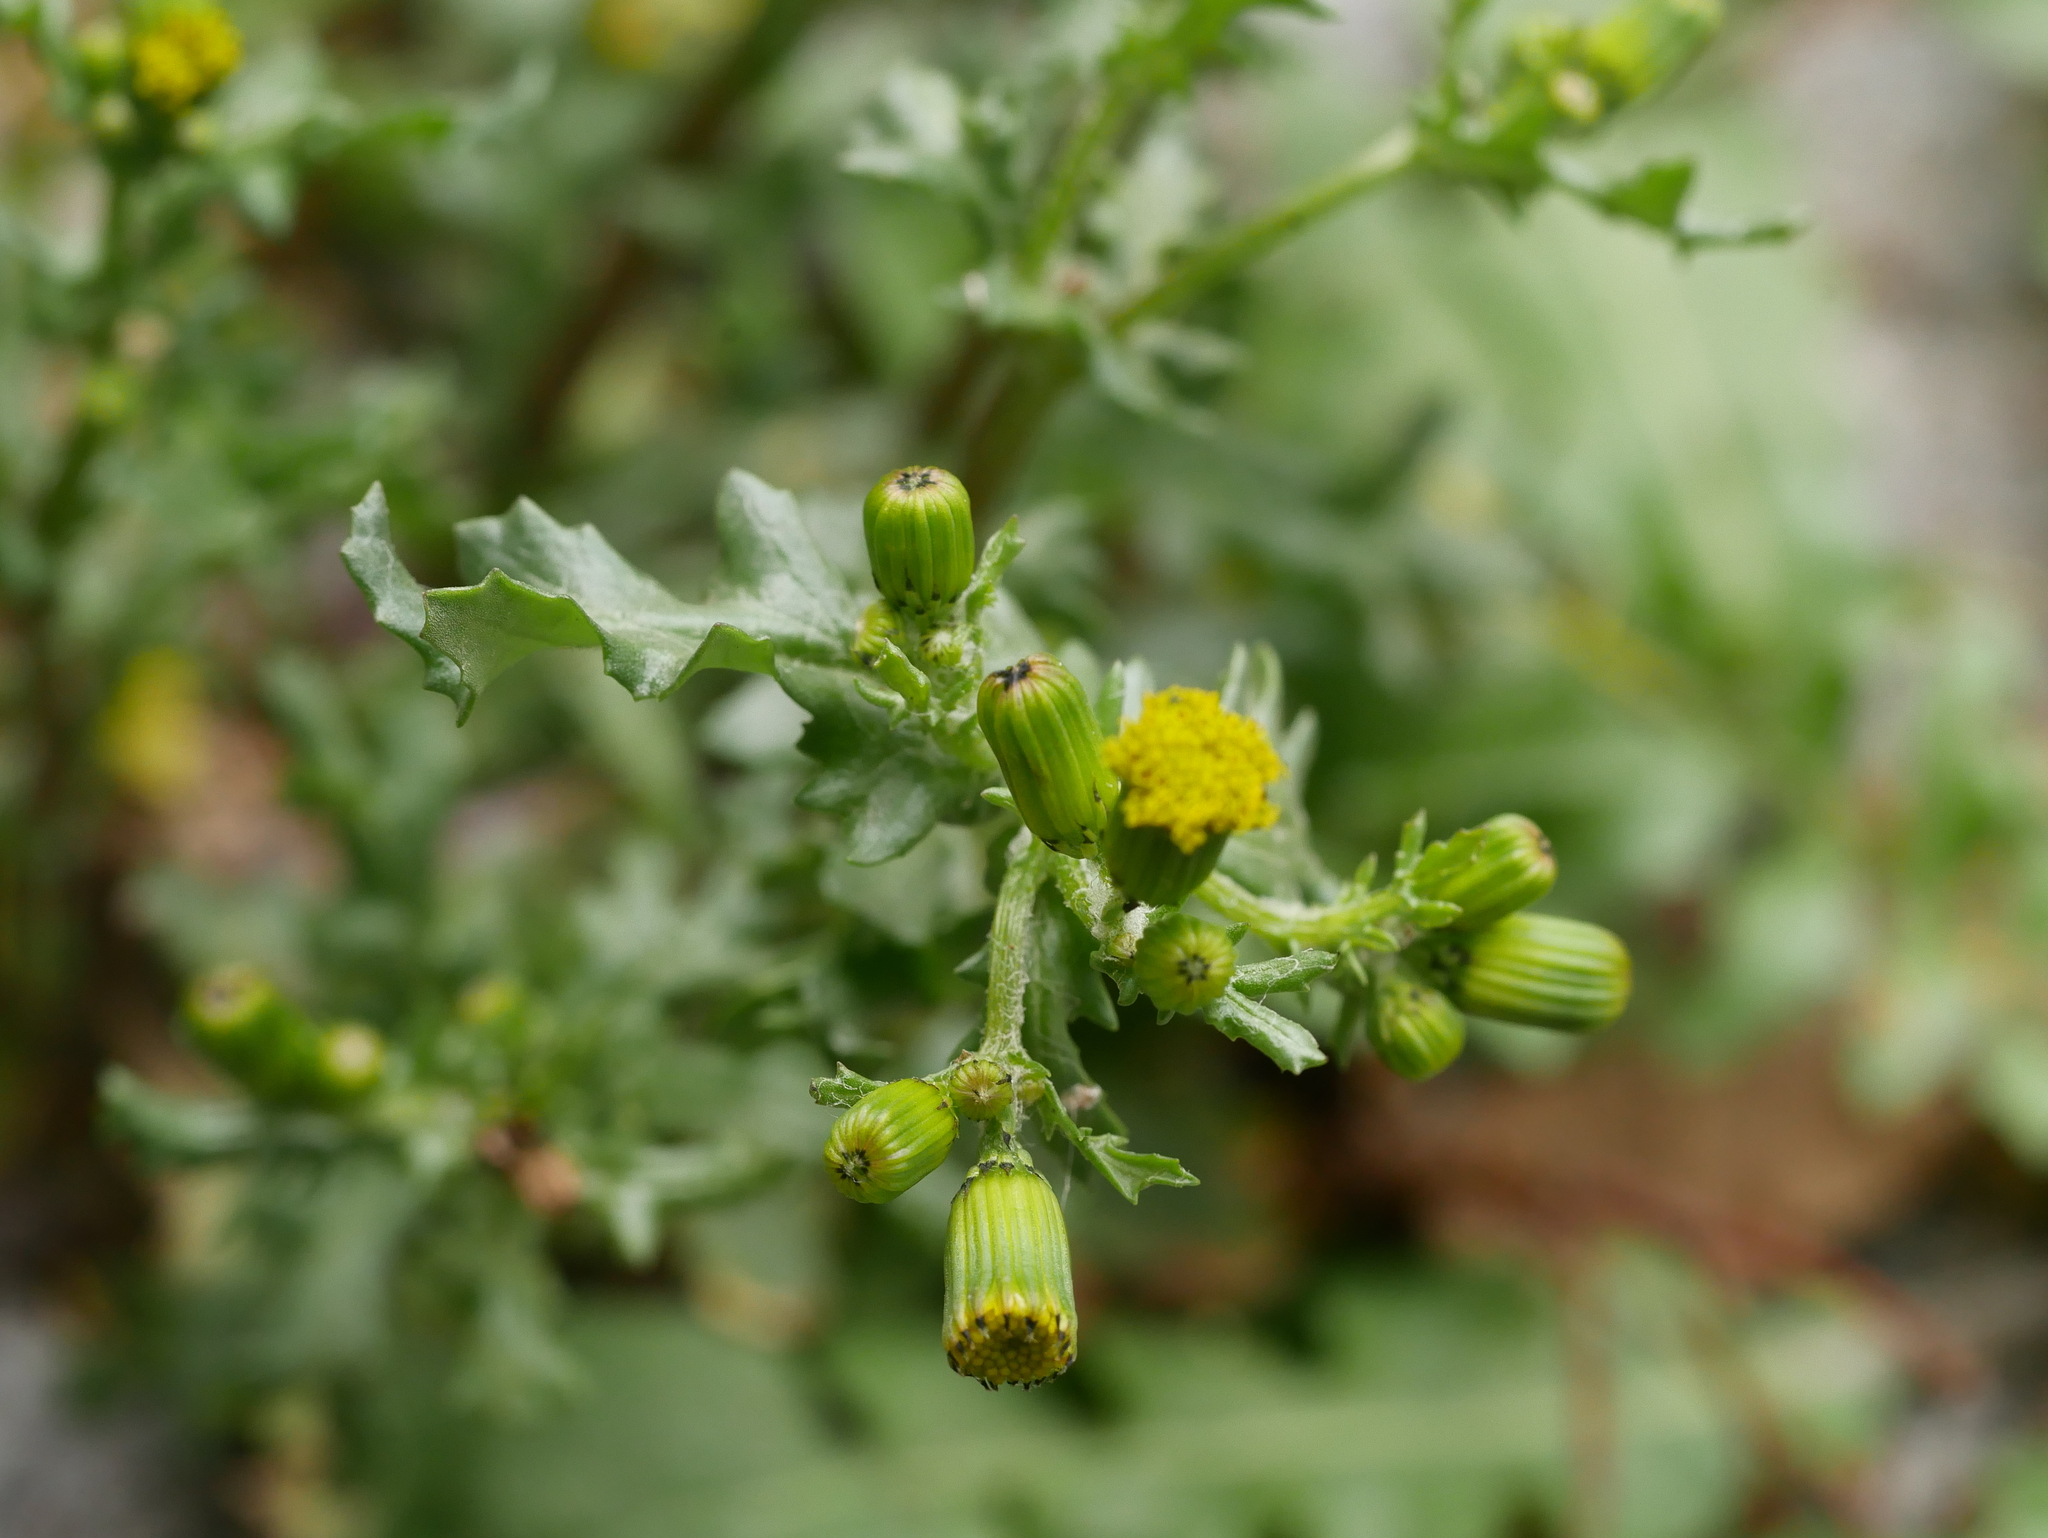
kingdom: Plantae
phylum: Tracheophyta
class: Magnoliopsida
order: Asterales
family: Asteraceae
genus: Senecio
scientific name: Senecio vulgaris
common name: Old-man-in-the-spring
